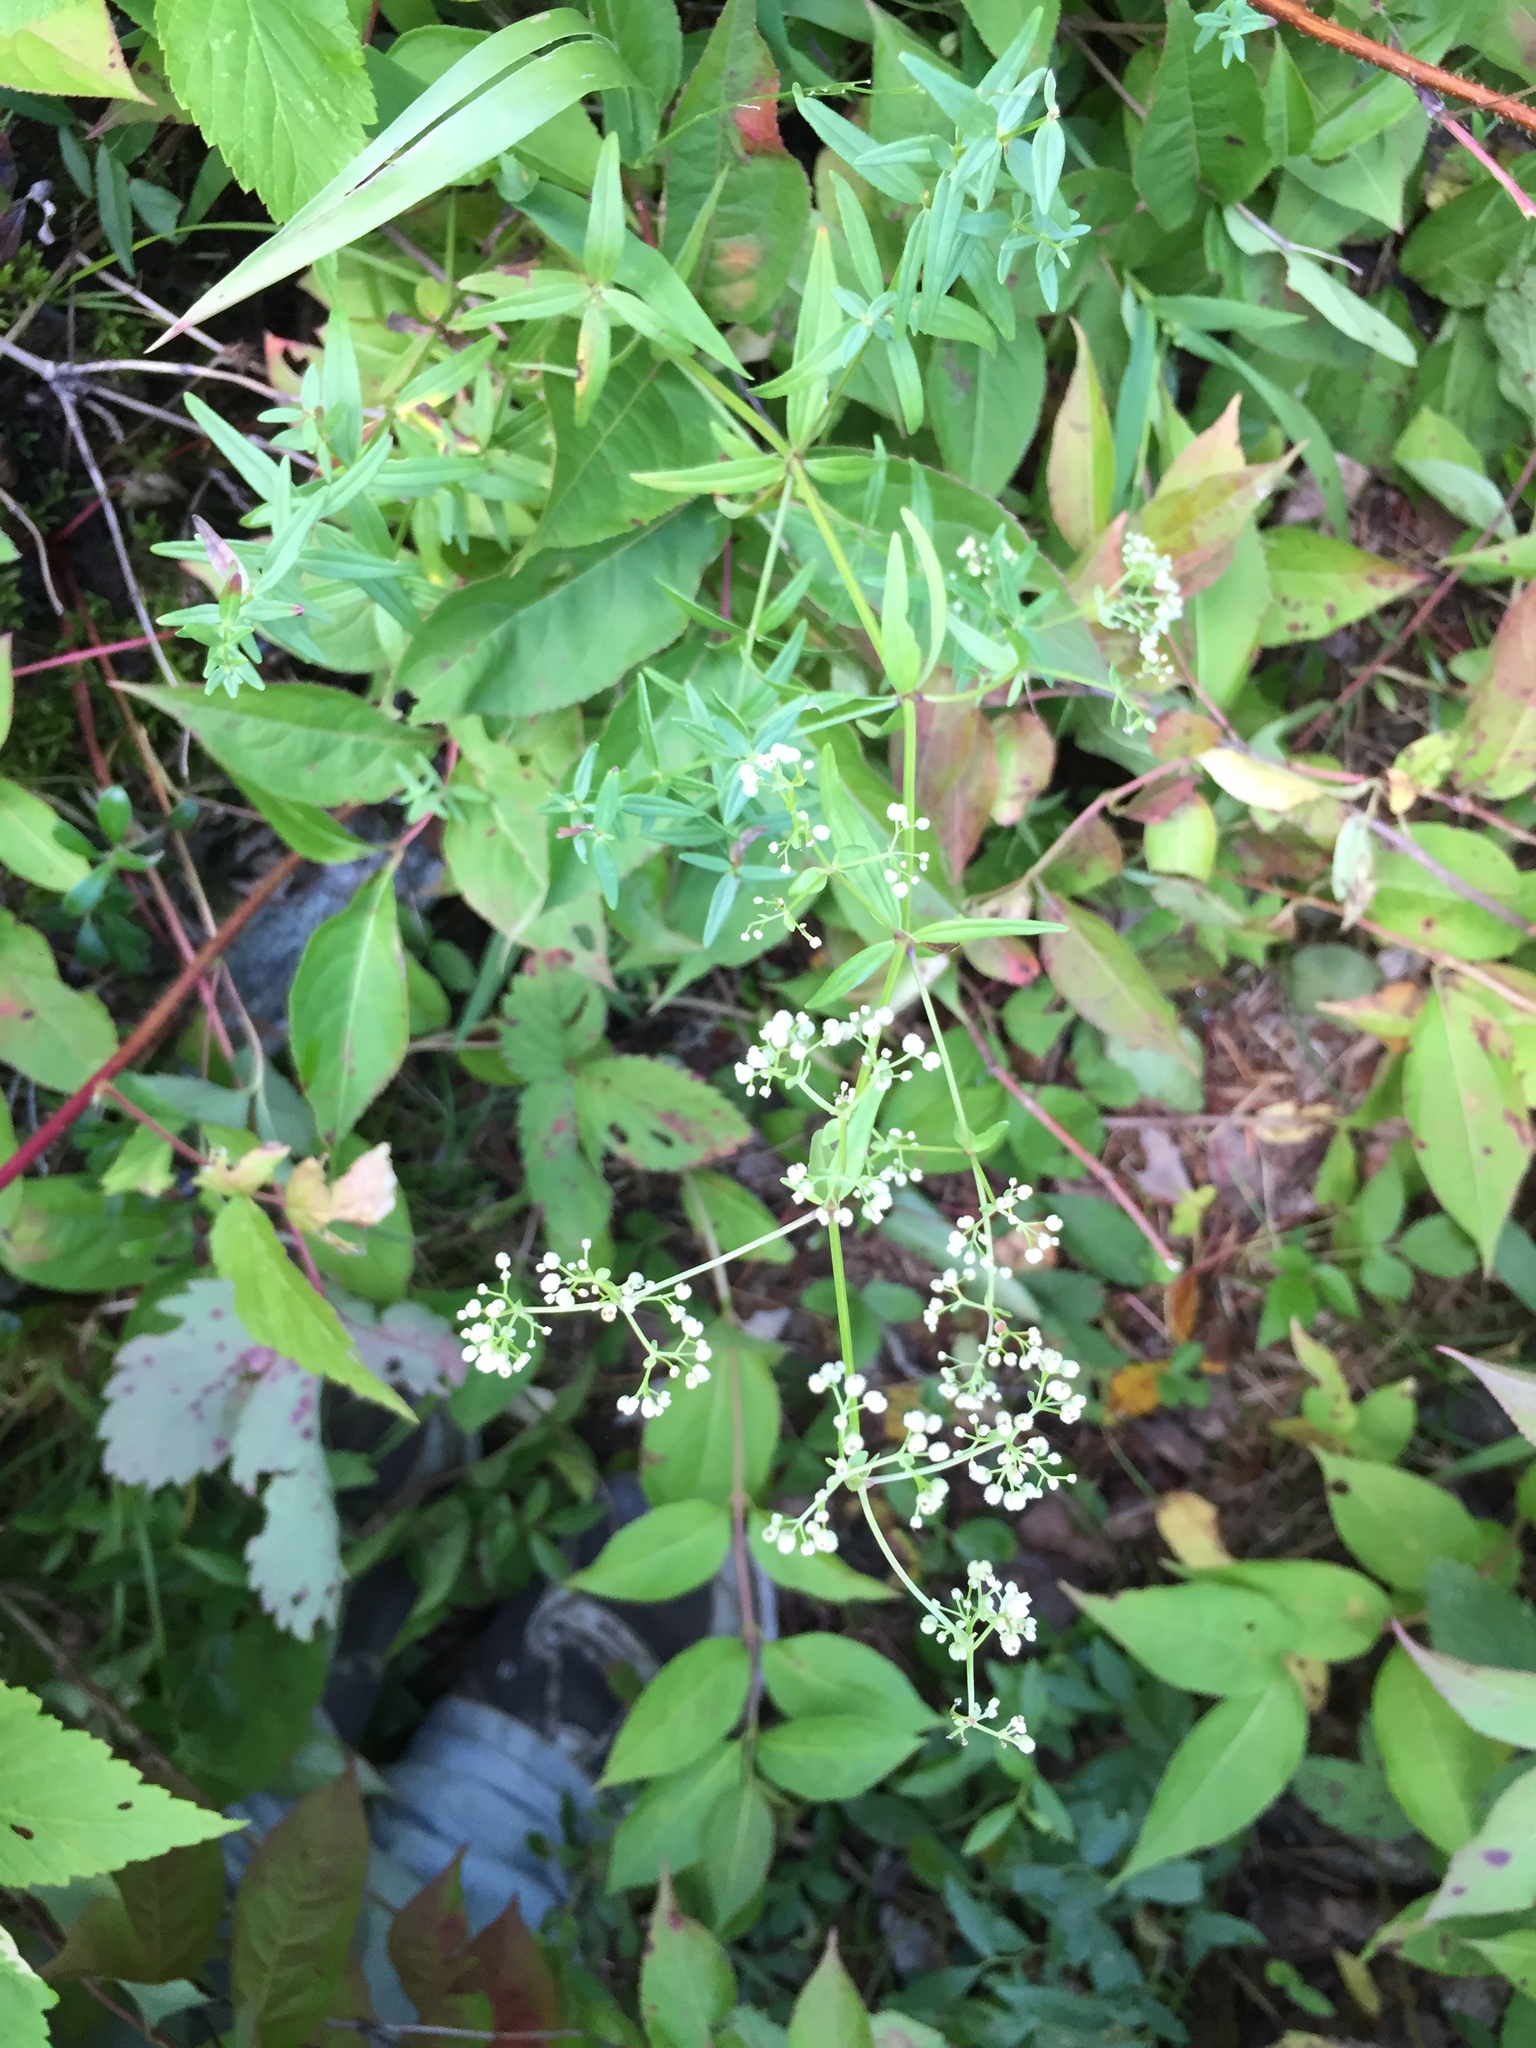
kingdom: Plantae
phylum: Tracheophyta
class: Magnoliopsida
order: Gentianales
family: Rubiaceae
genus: Galium
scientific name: Galium boreale
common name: Northern bedstraw
